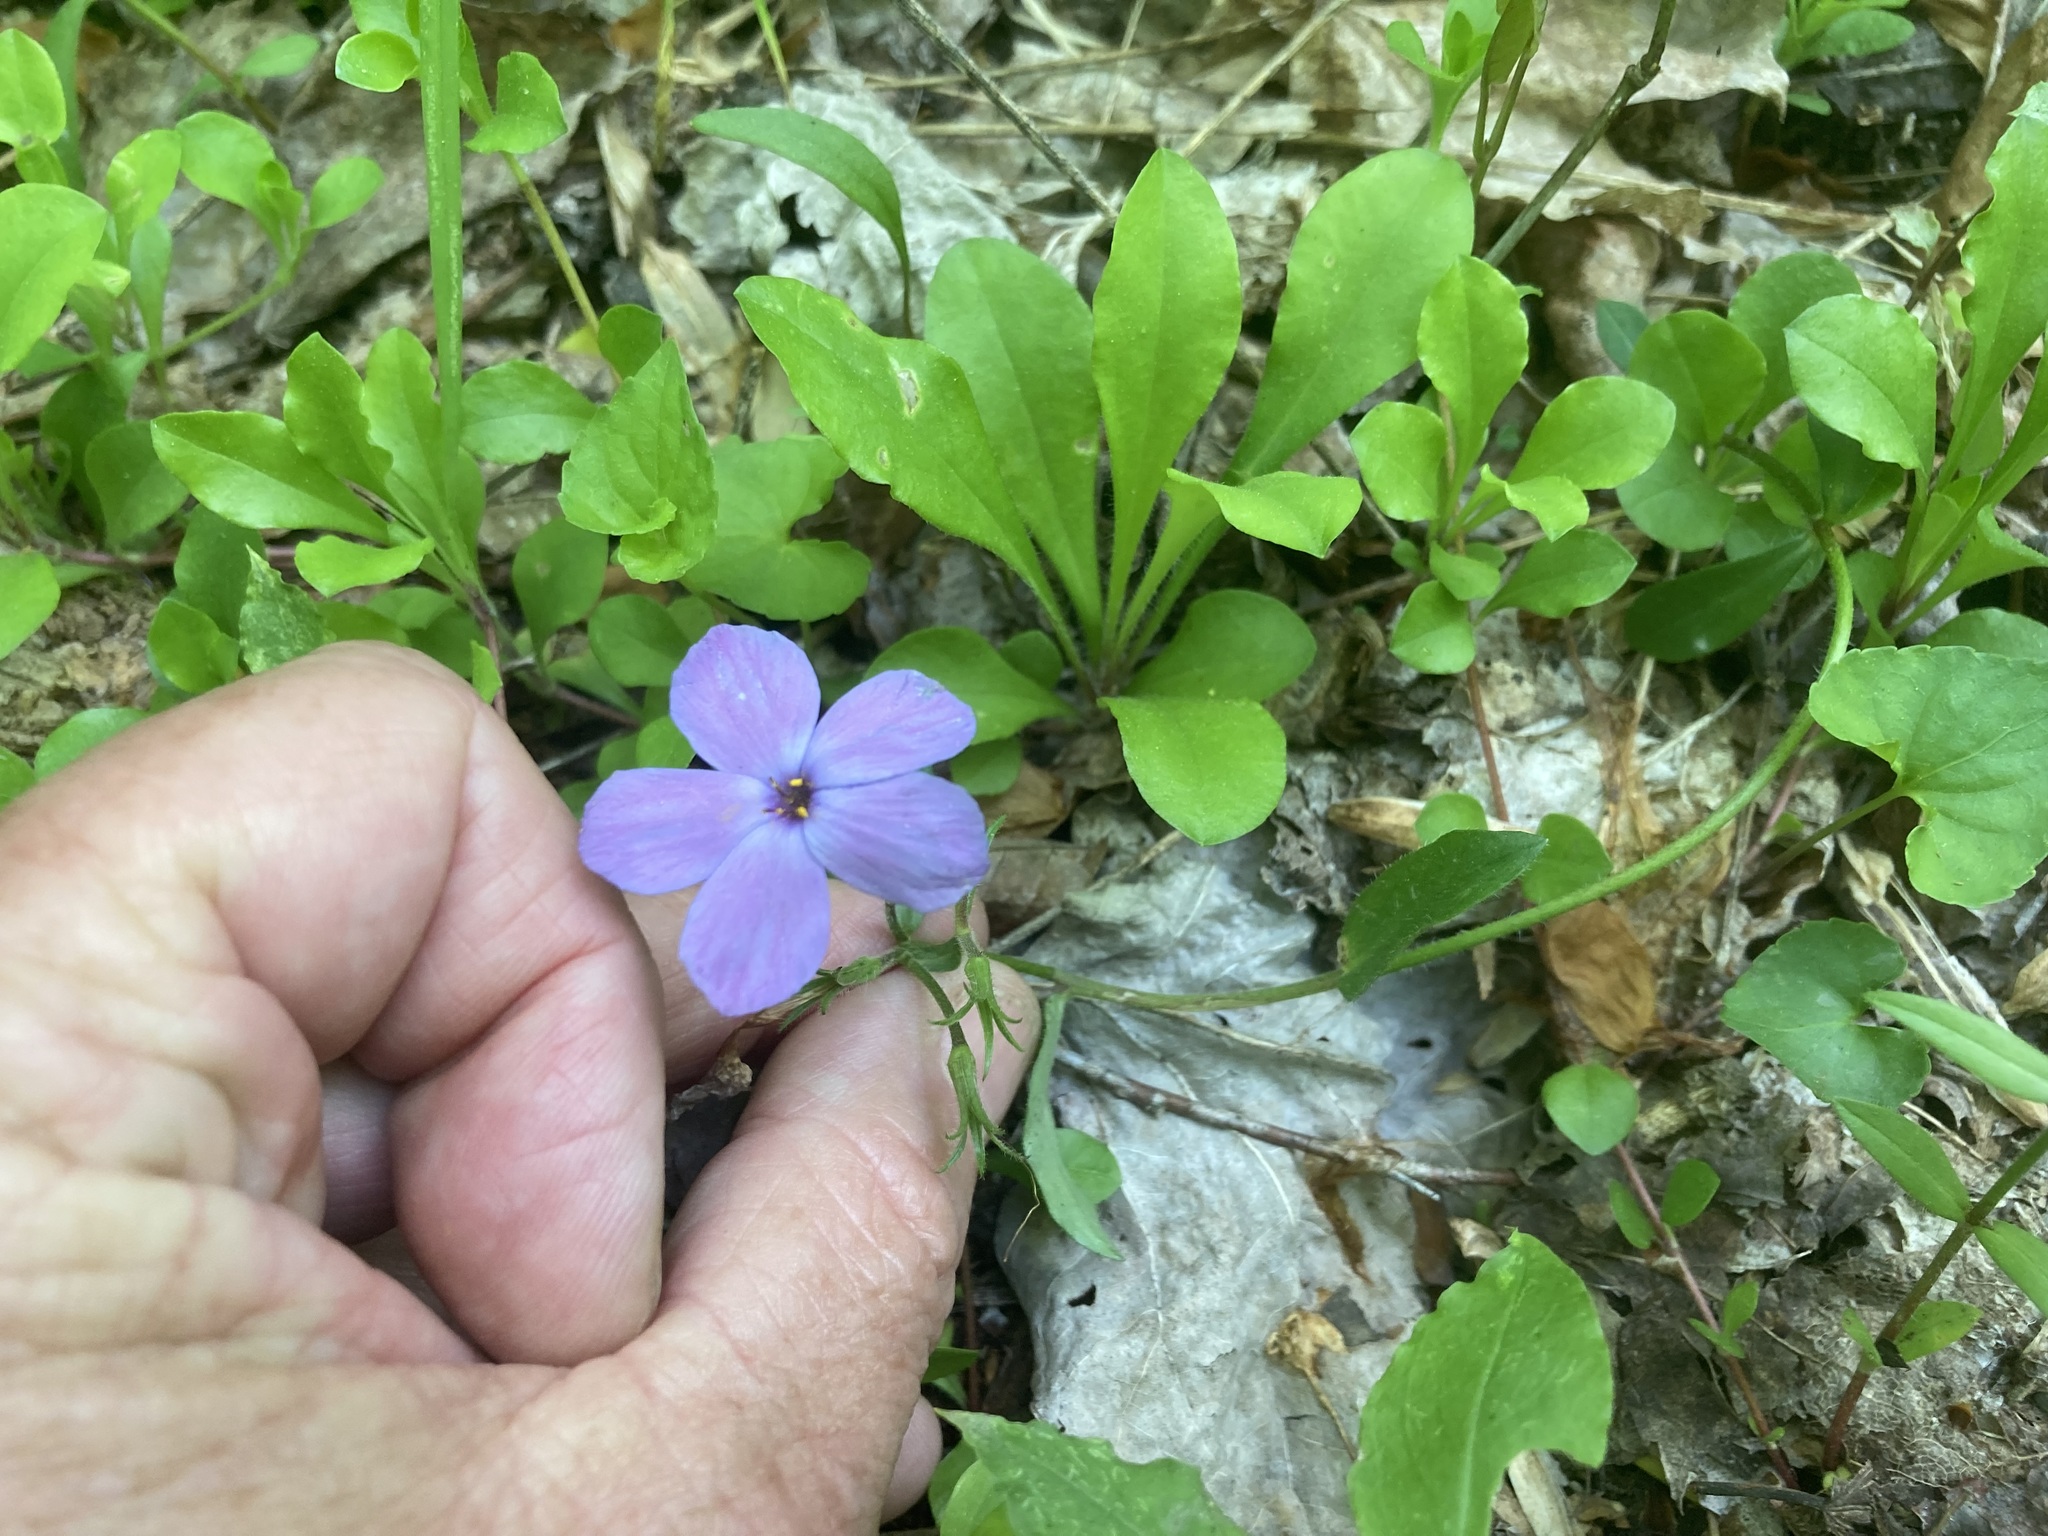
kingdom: Plantae
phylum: Tracheophyta
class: Magnoliopsida
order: Ericales
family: Polemoniaceae
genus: Phlox
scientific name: Phlox stolonifera
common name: Creeping phlox
